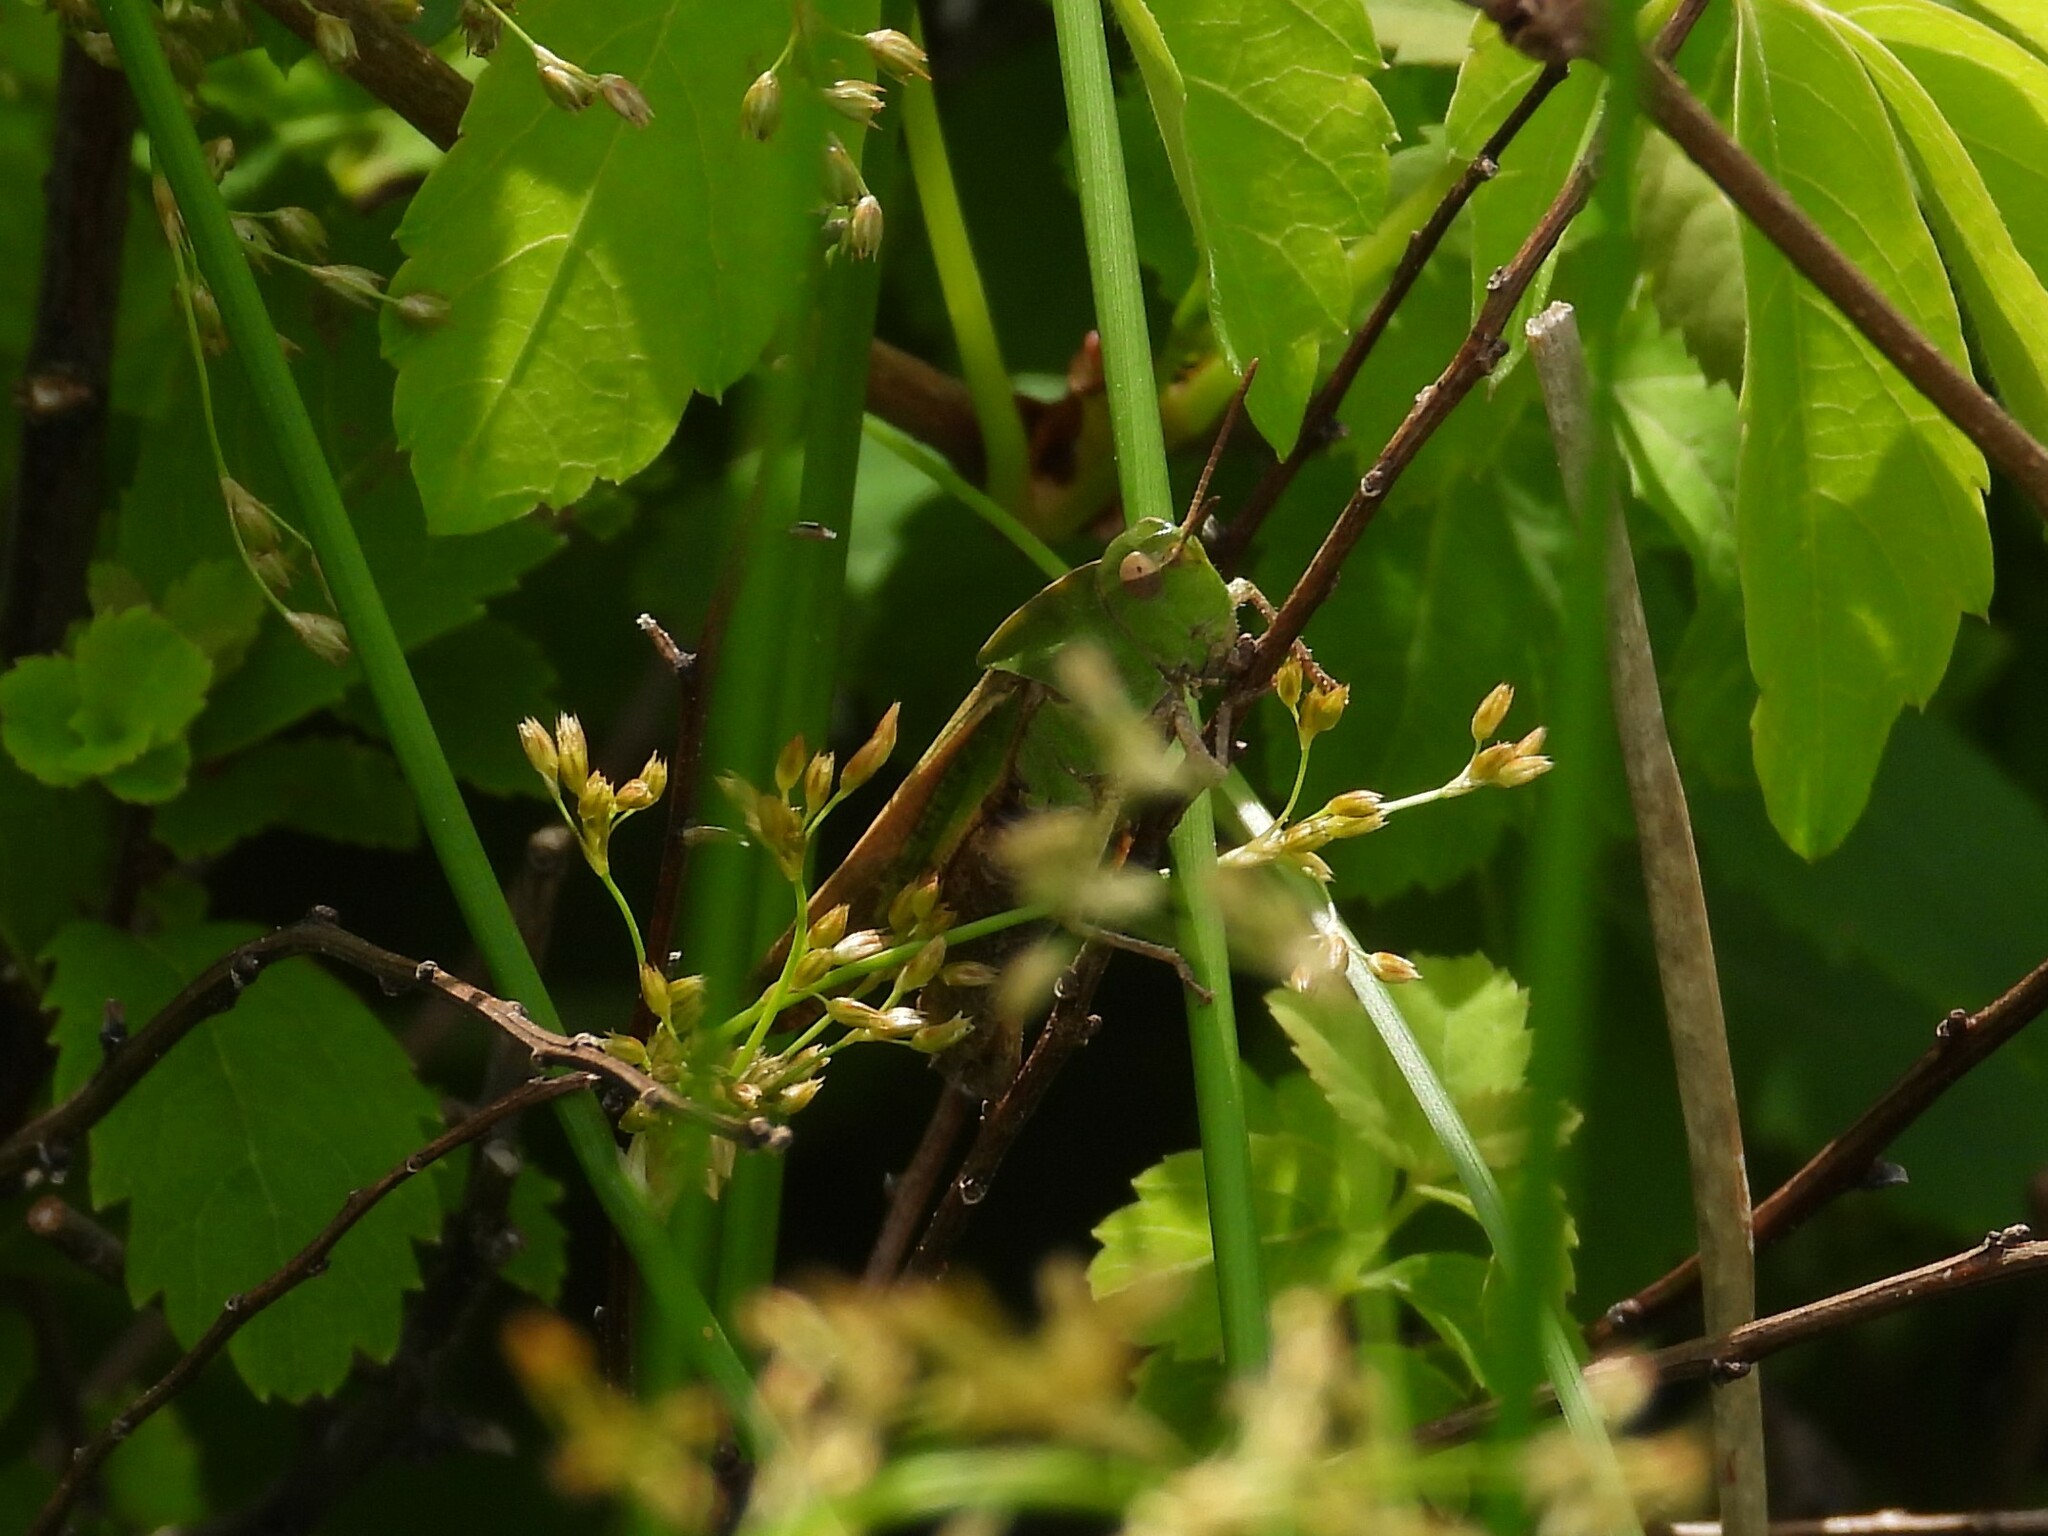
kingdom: Animalia
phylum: Arthropoda
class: Insecta
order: Orthoptera
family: Acrididae
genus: Chortophaga
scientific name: Chortophaga viridifasciata
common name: Green-striped grasshopper
